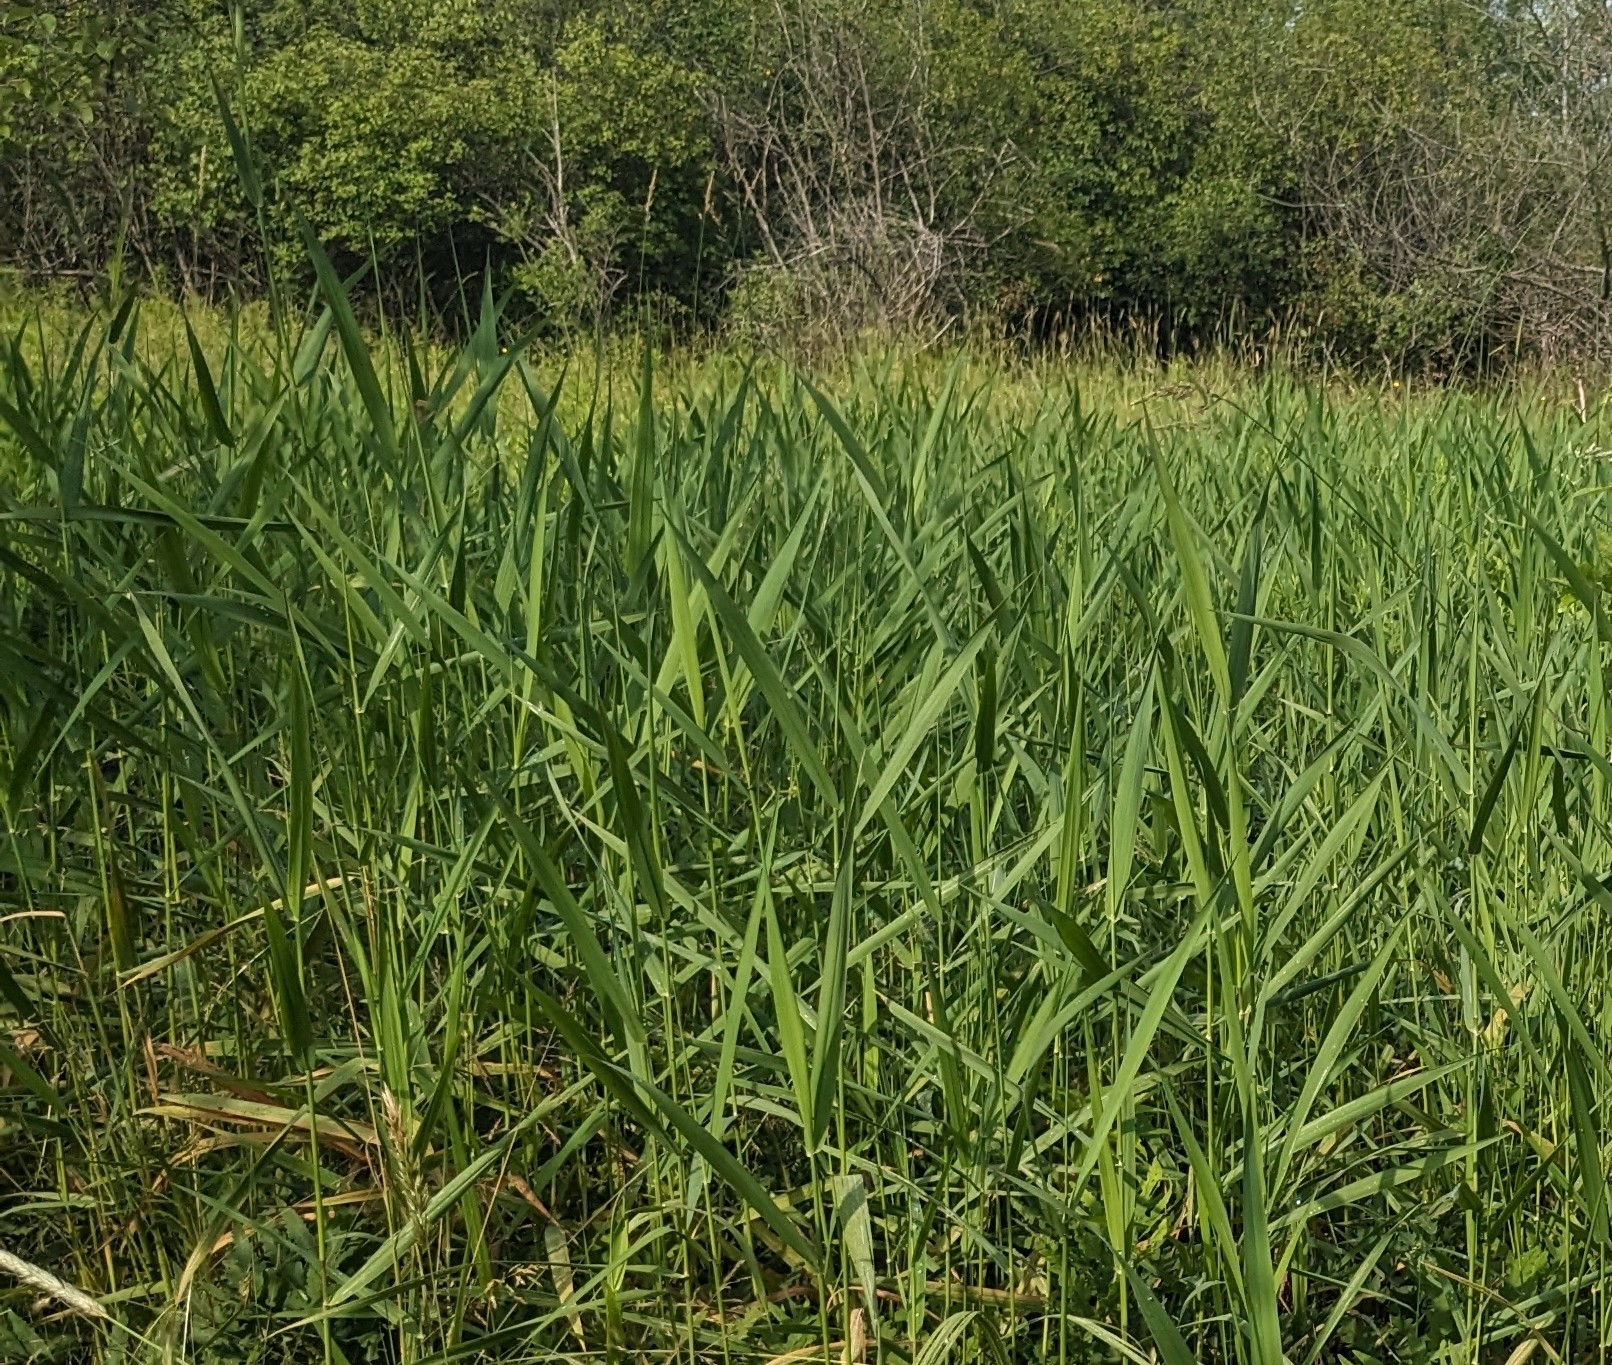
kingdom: Plantae
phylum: Tracheophyta
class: Liliopsida
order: Poales
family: Poaceae
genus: Phragmites
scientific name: Phragmites australis
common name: Common reed
